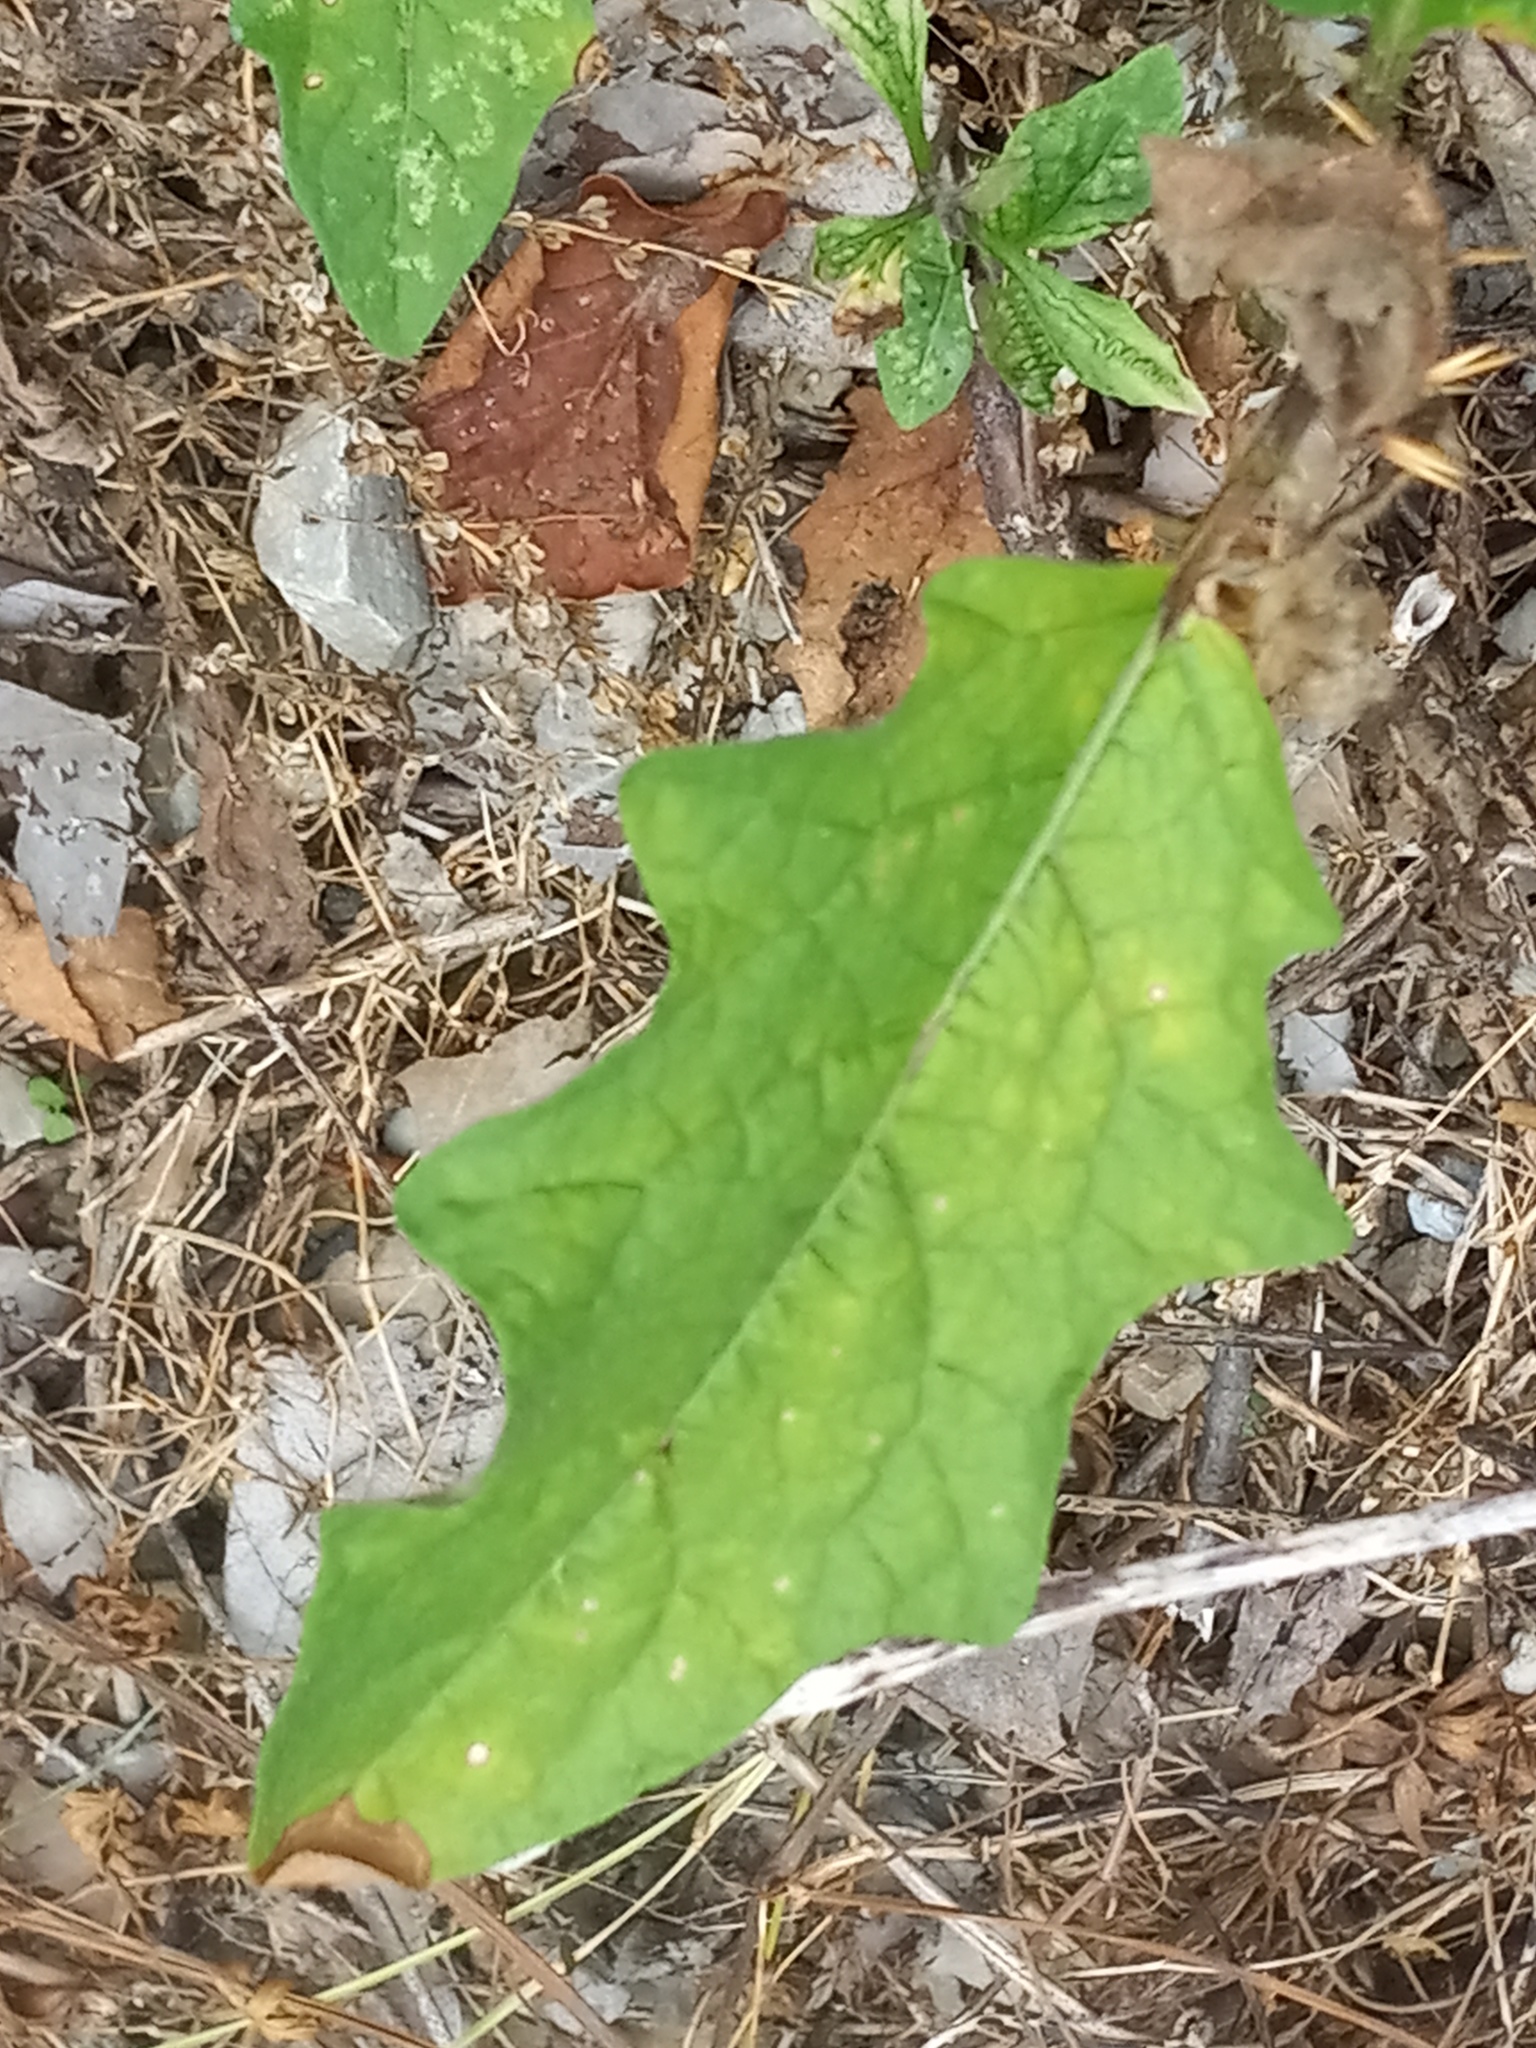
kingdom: Plantae
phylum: Tracheophyta
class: Magnoliopsida
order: Solanales
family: Solanaceae
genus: Solanum
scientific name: Solanum carolinense
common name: Horse-nettle
